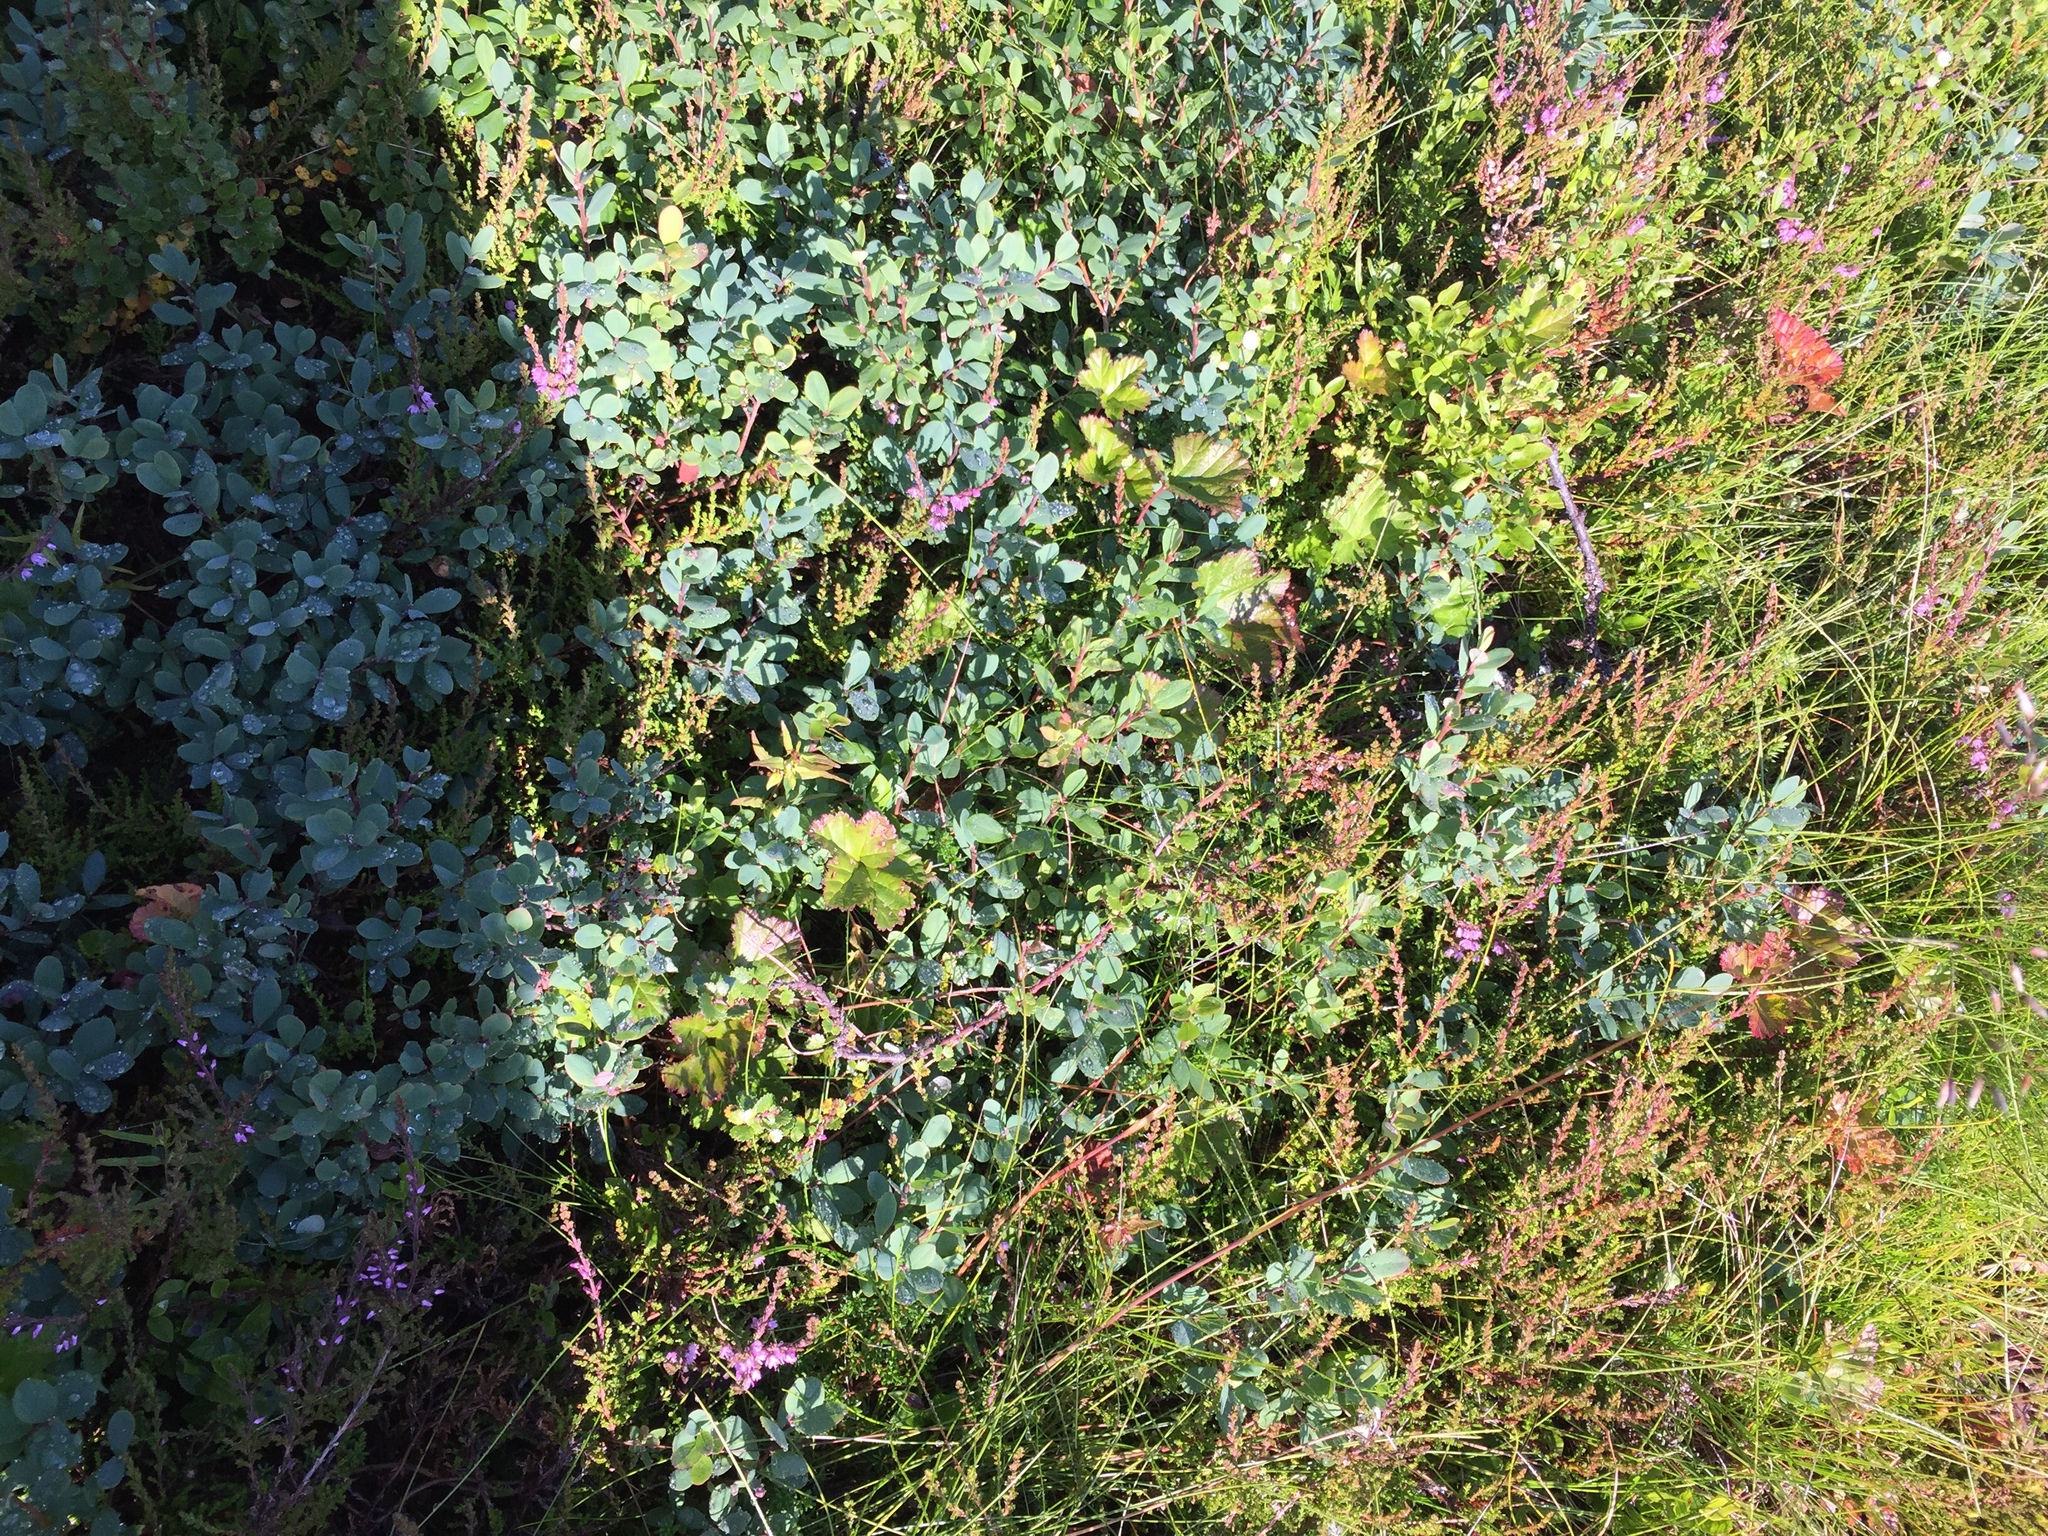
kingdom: Plantae
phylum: Tracheophyta
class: Magnoliopsida
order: Ericales
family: Ericaceae
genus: Vaccinium
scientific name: Vaccinium uliginosum
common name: Bog bilberry
